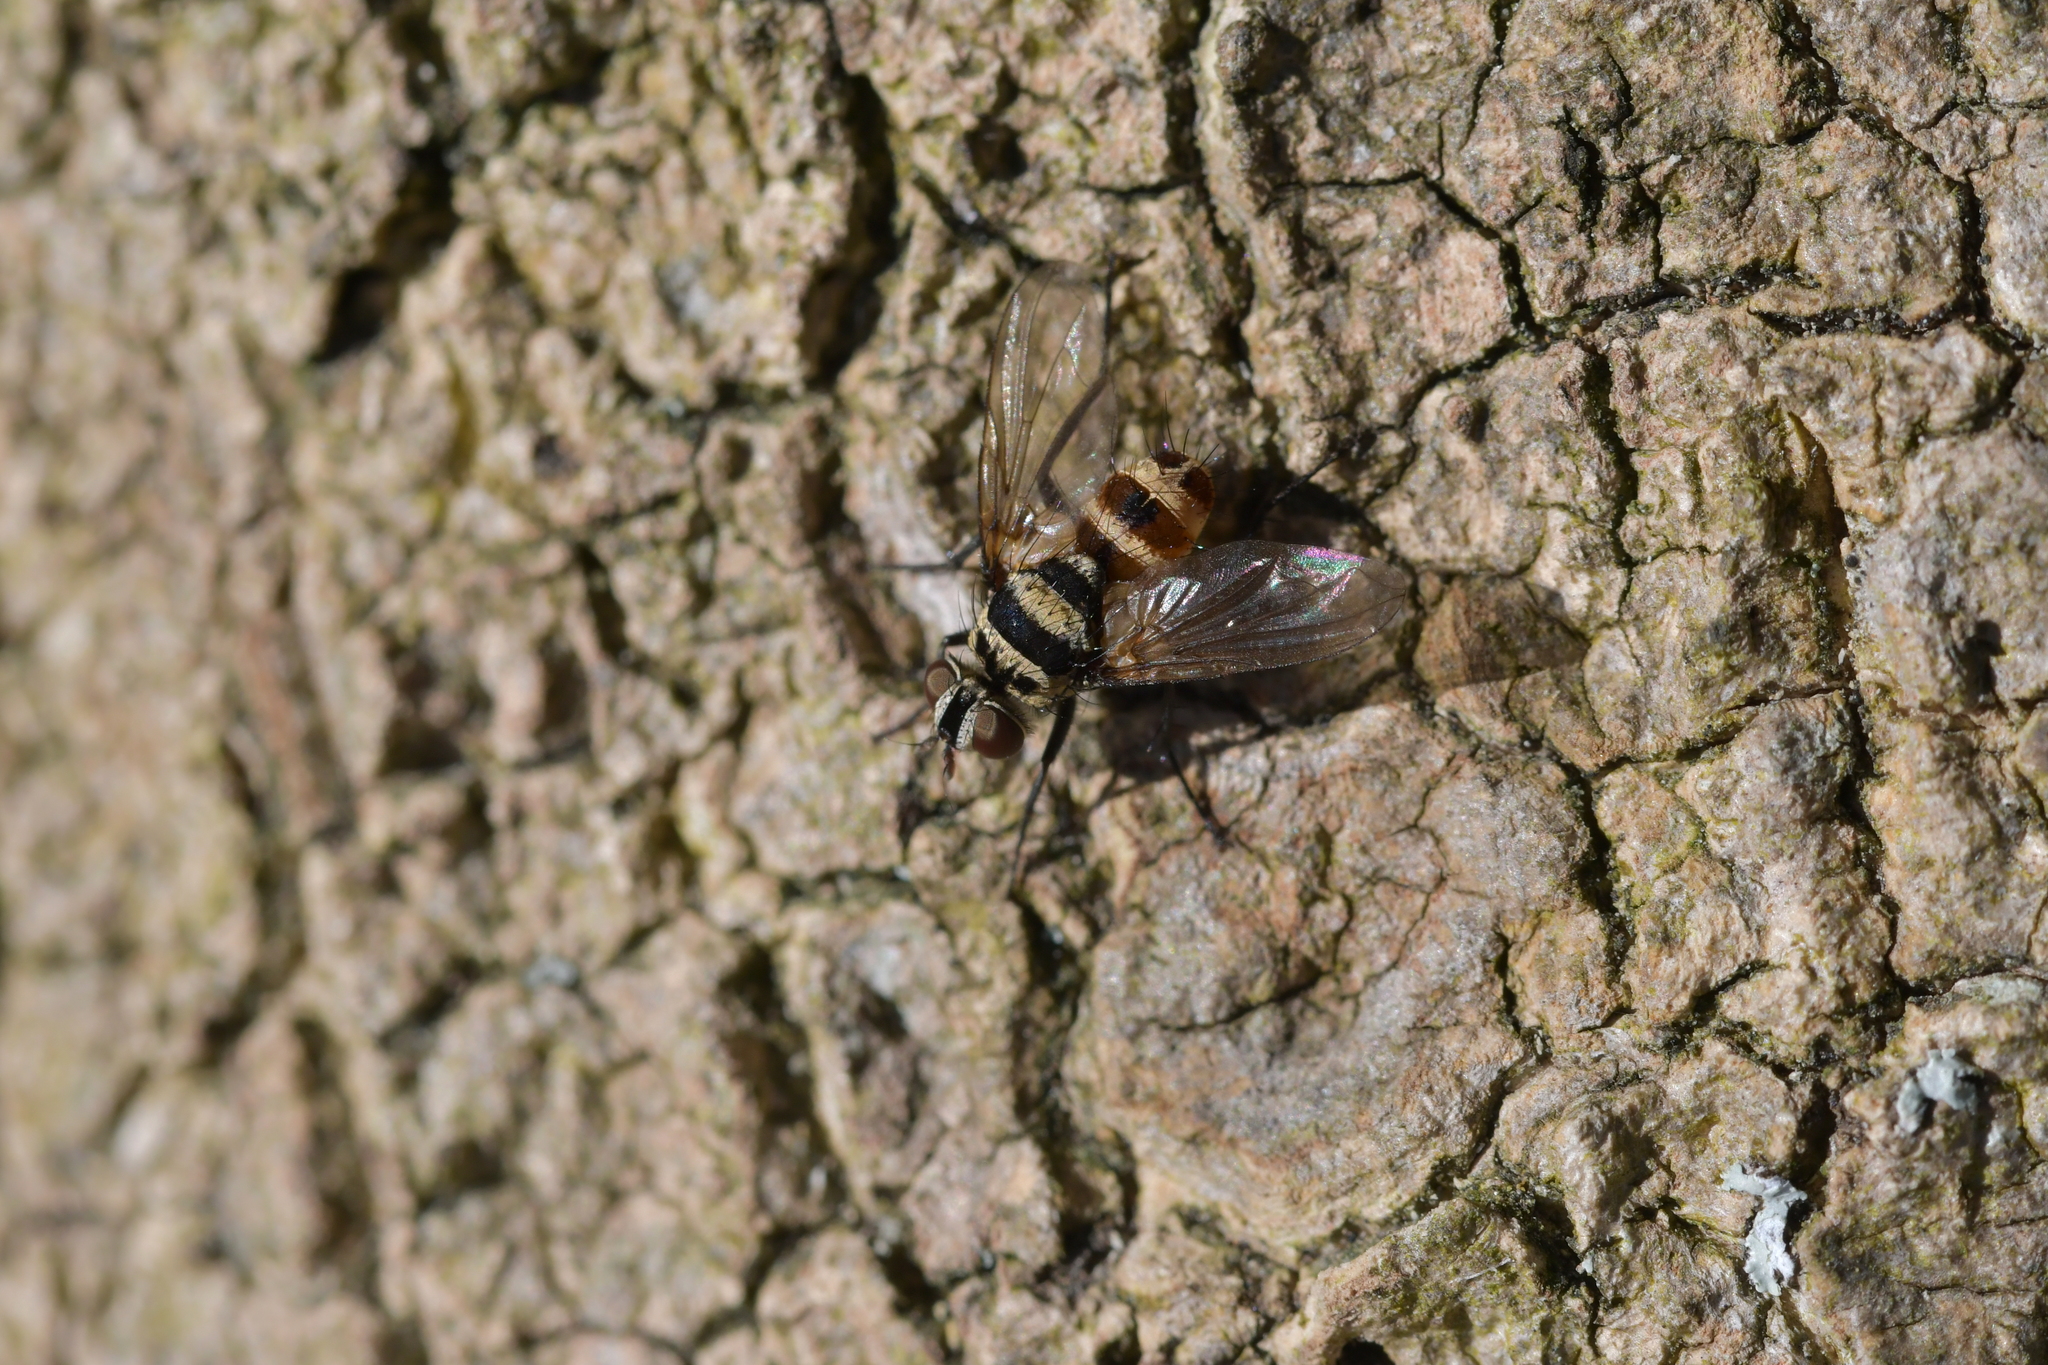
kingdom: Animalia
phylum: Arthropoda
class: Insecta
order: Diptera
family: Tachinidae
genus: Trigonospila
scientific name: Trigonospila brevifacies
